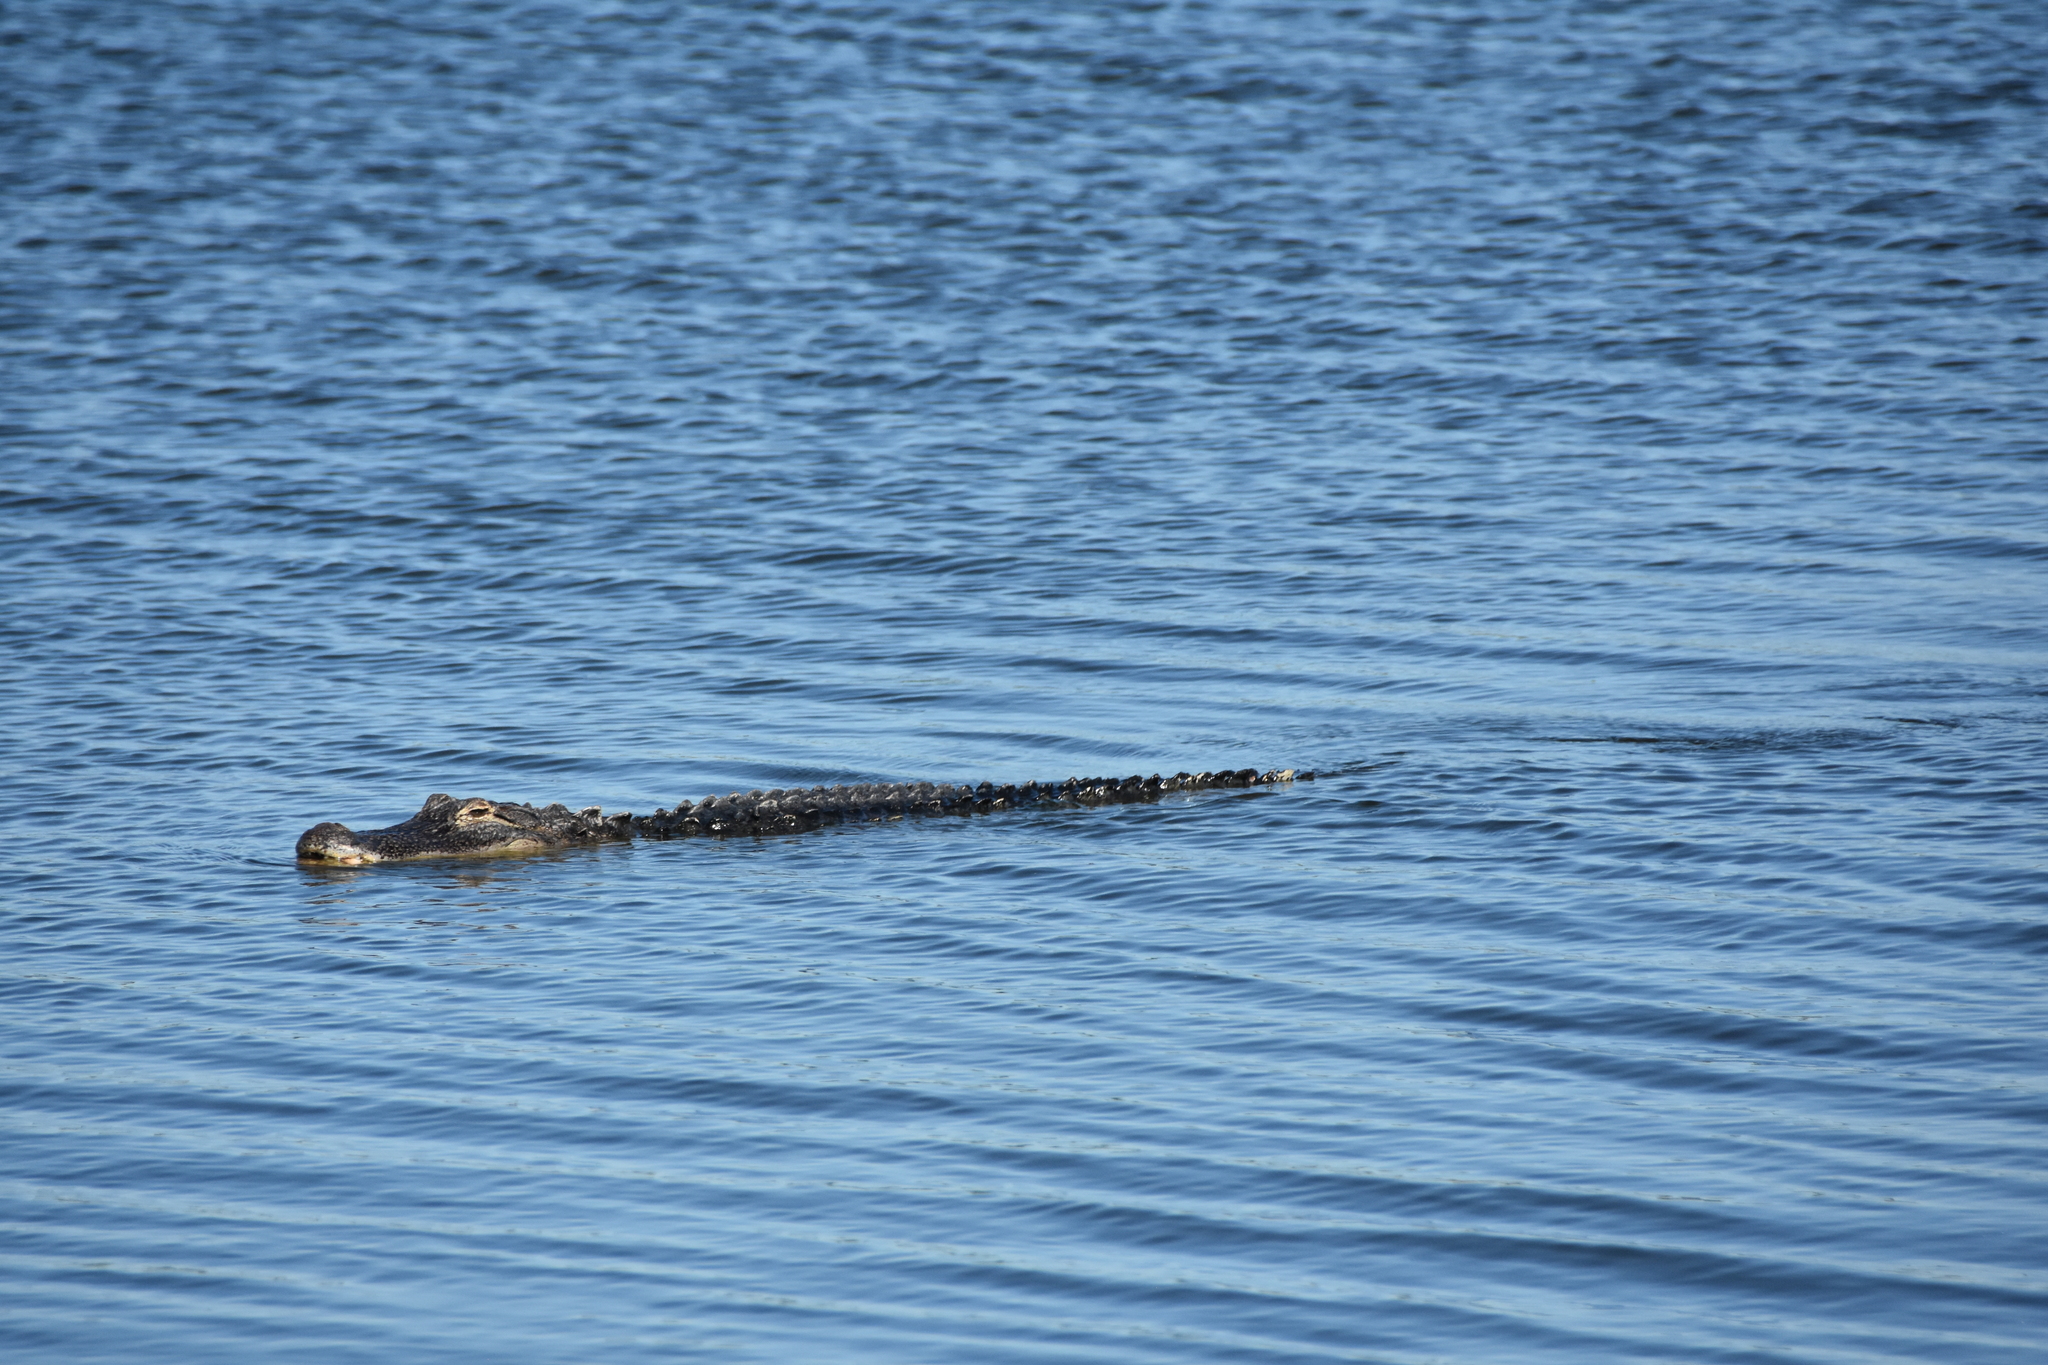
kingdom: Animalia
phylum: Chordata
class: Crocodylia
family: Alligatoridae
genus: Alligator
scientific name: Alligator mississippiensis
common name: American alligator
